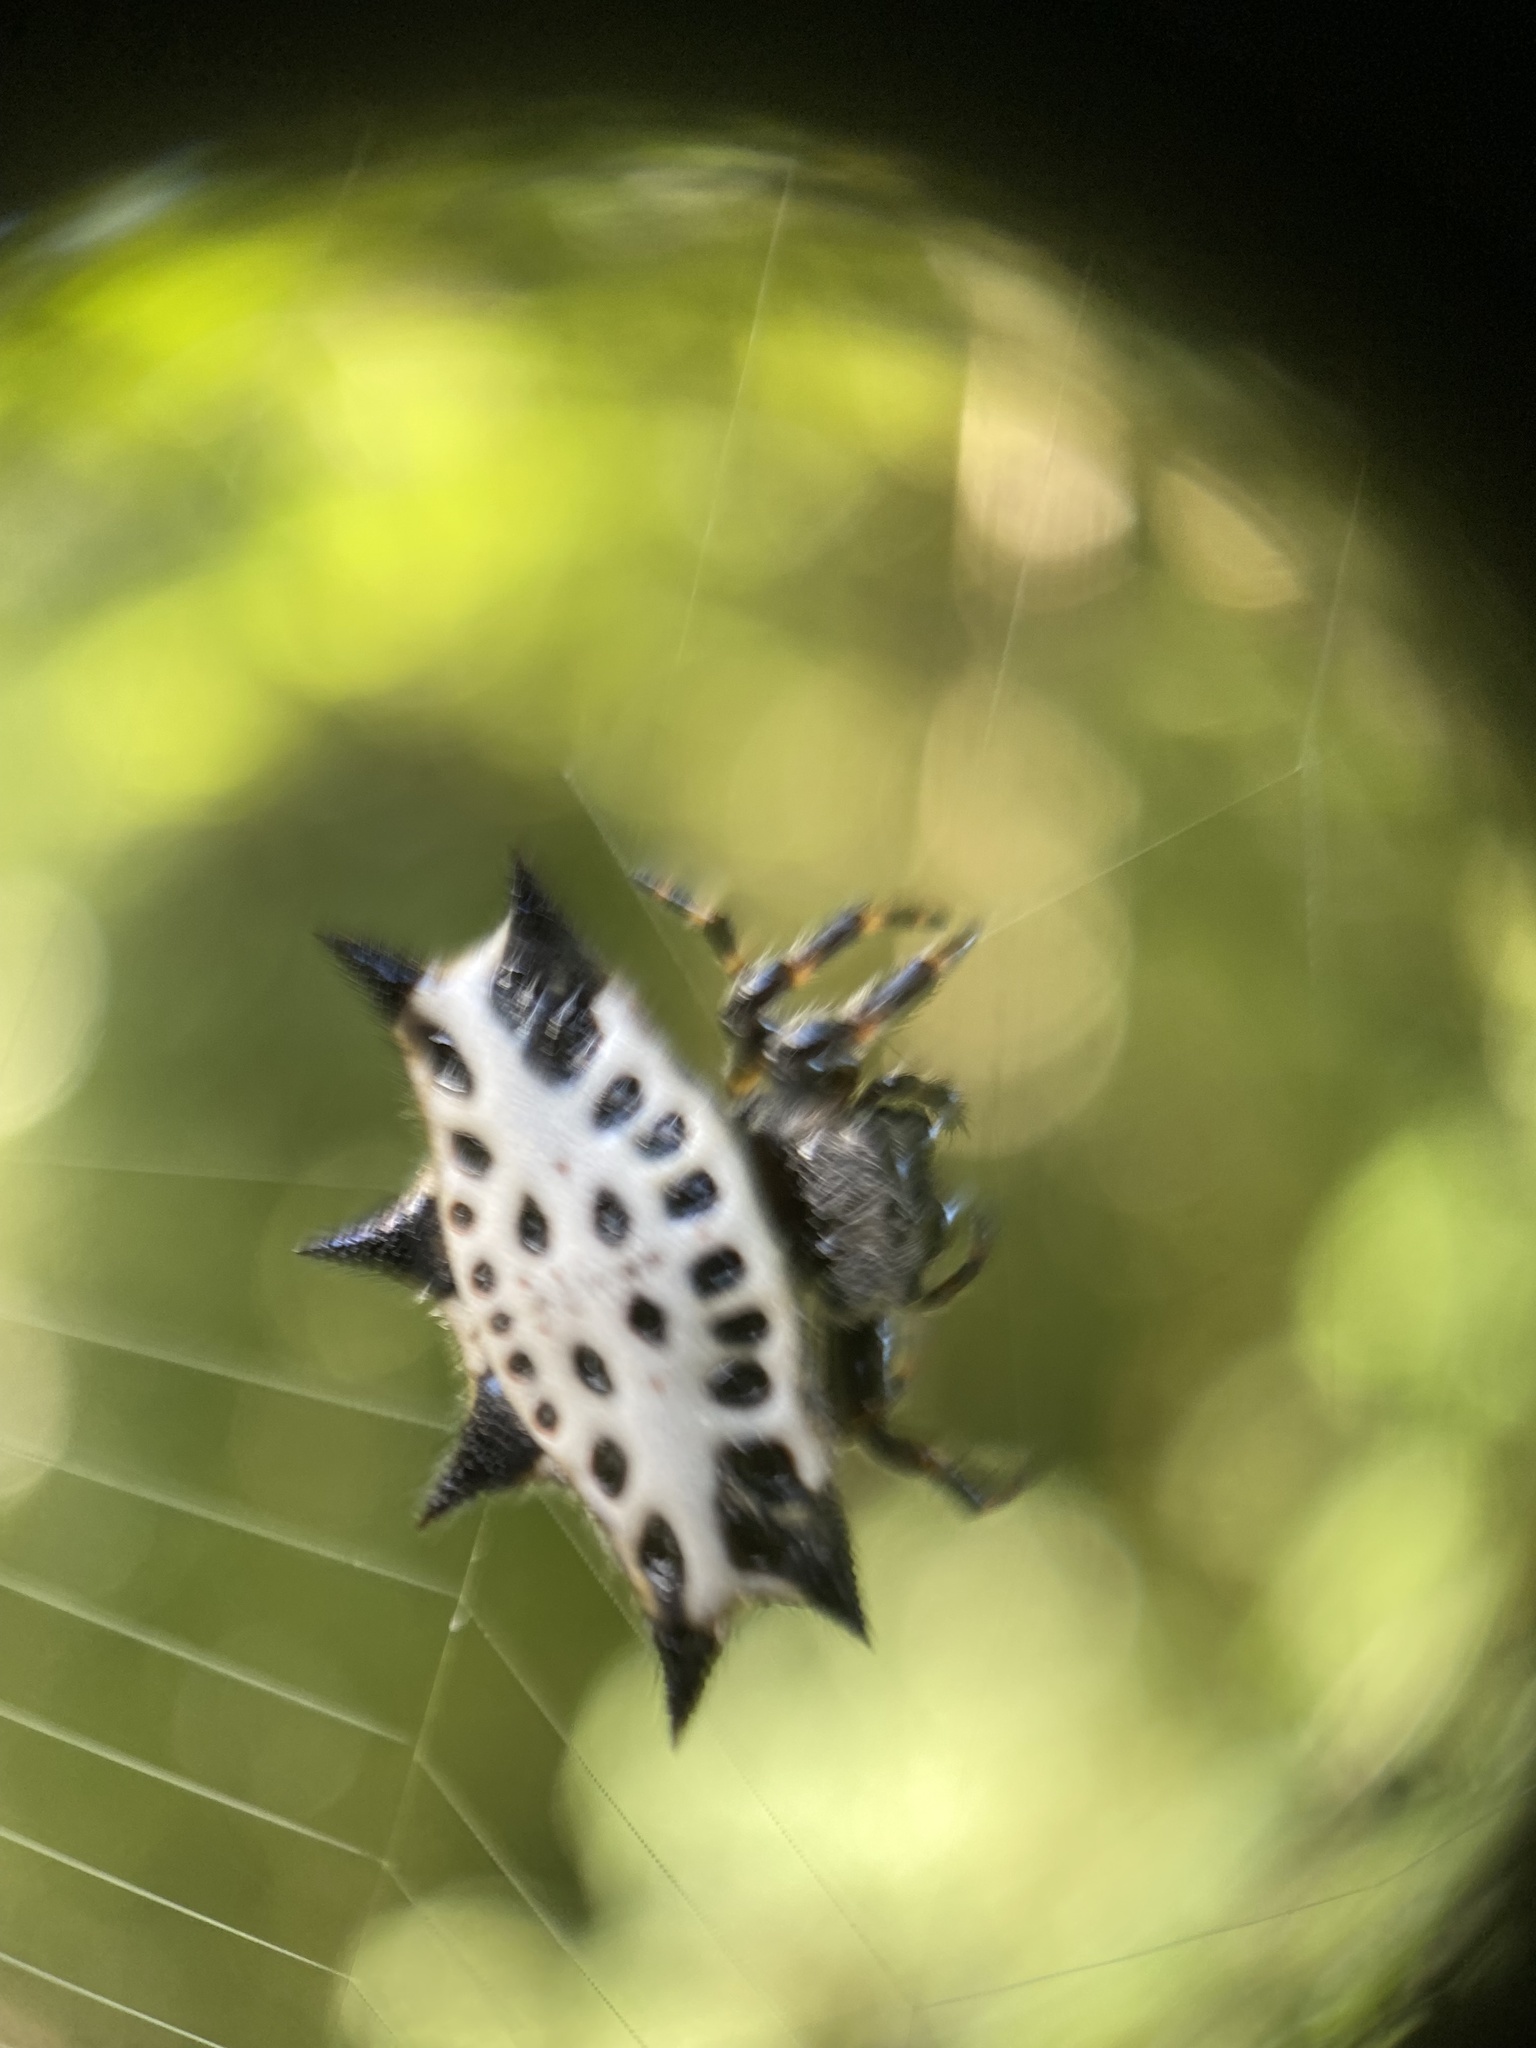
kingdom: Animalia
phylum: Arthropoda
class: Arachnida
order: Araneae
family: Araneidae
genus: Gasteracantha
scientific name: Gasteracantha cancriformis
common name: Orb weavers
